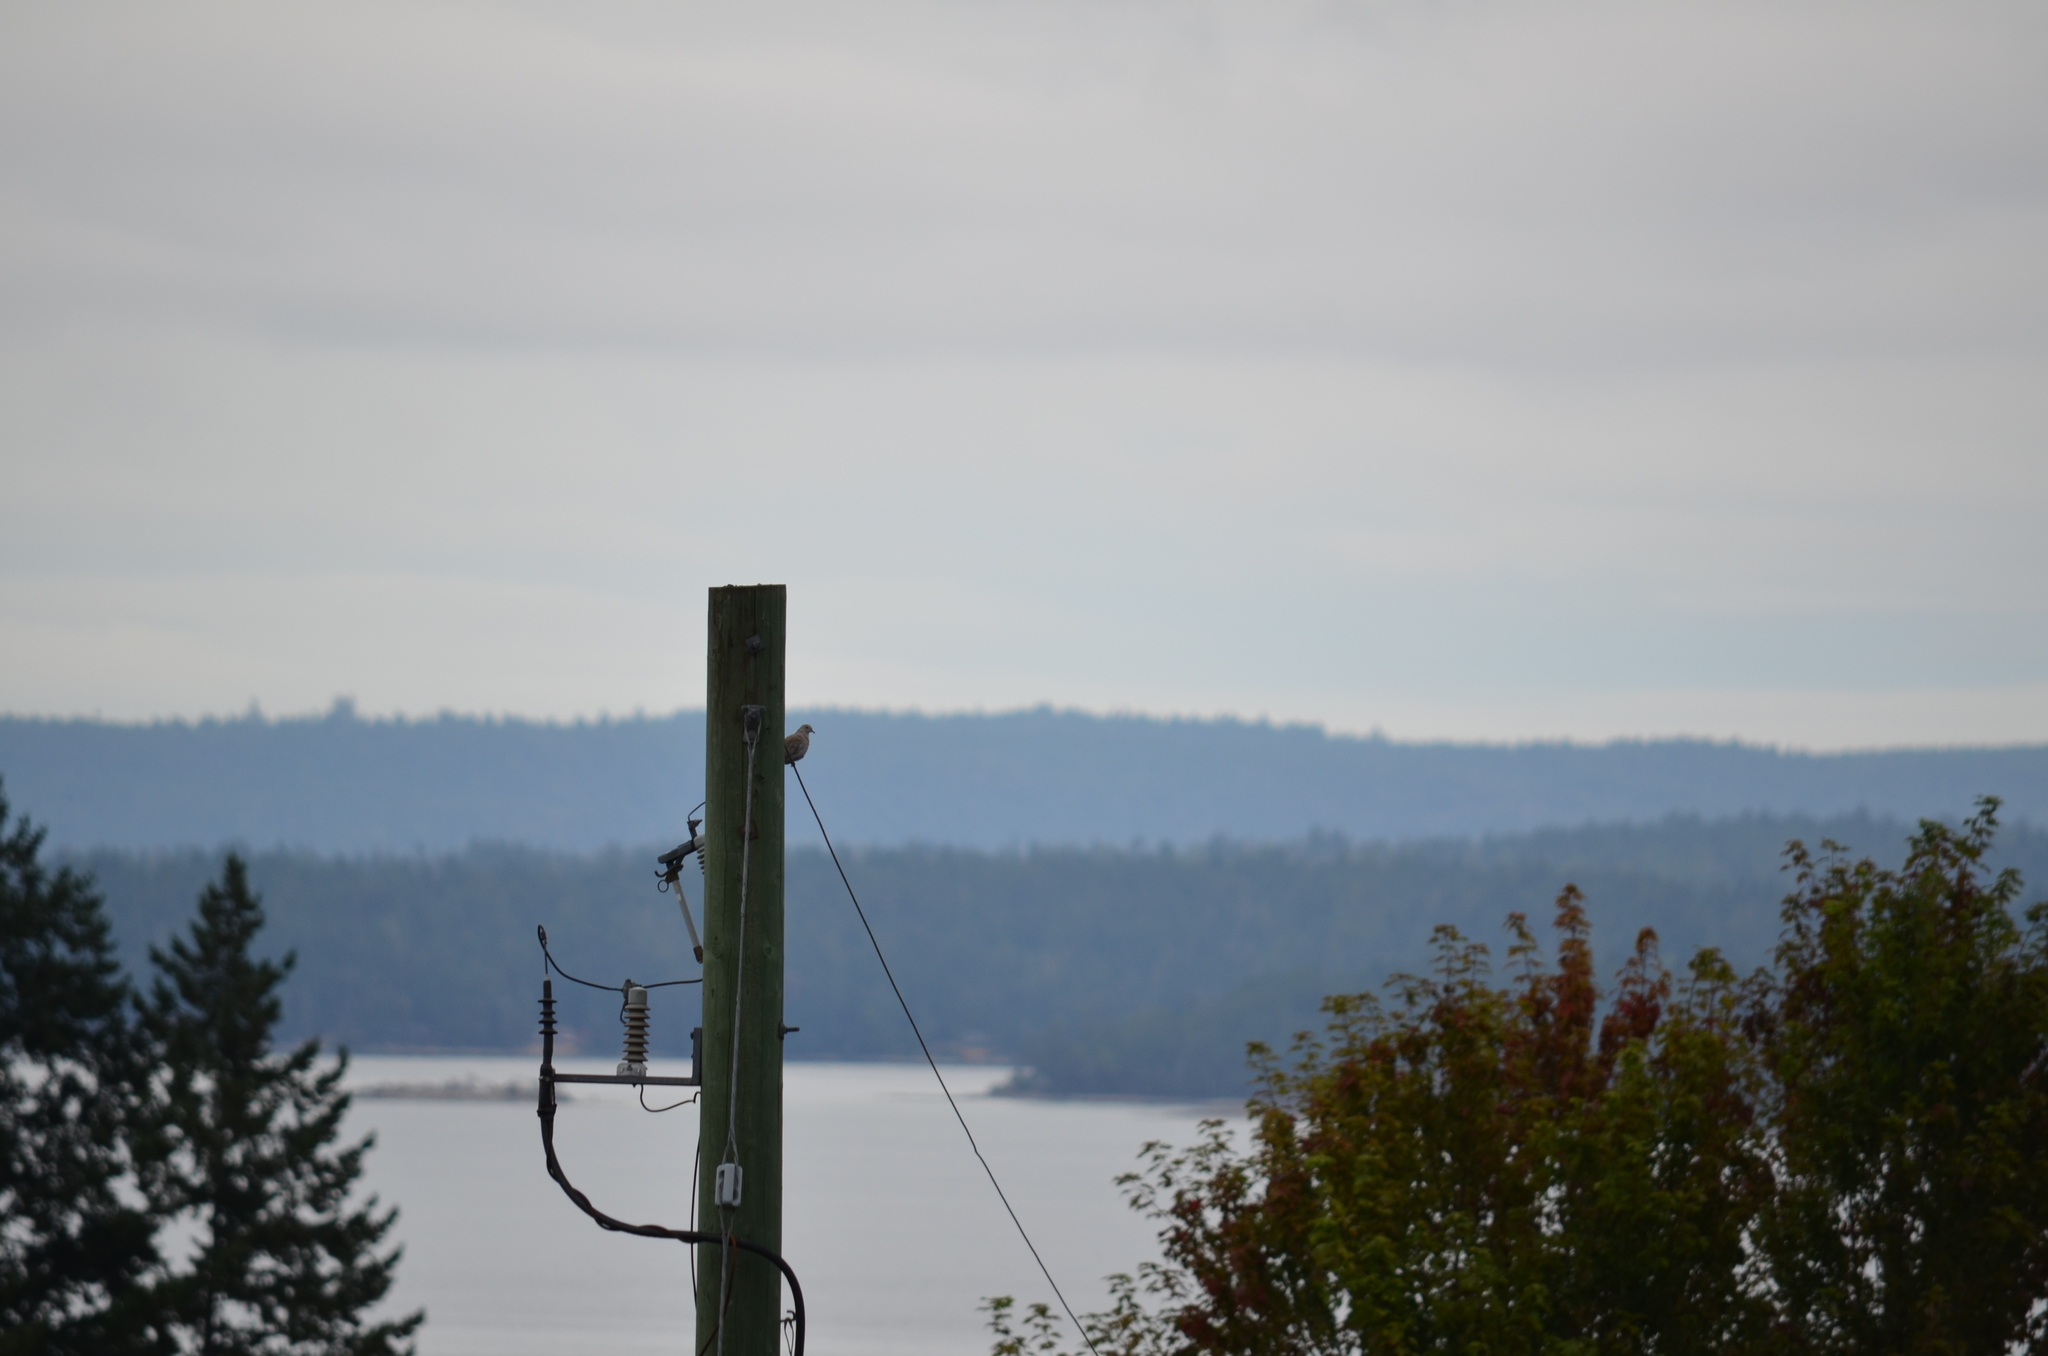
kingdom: Animalia
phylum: Chordata
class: Aves
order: Columbiformes
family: Columbidae
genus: Streptopelia
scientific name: Streptopelia decaocto
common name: Eurasian collared dove
